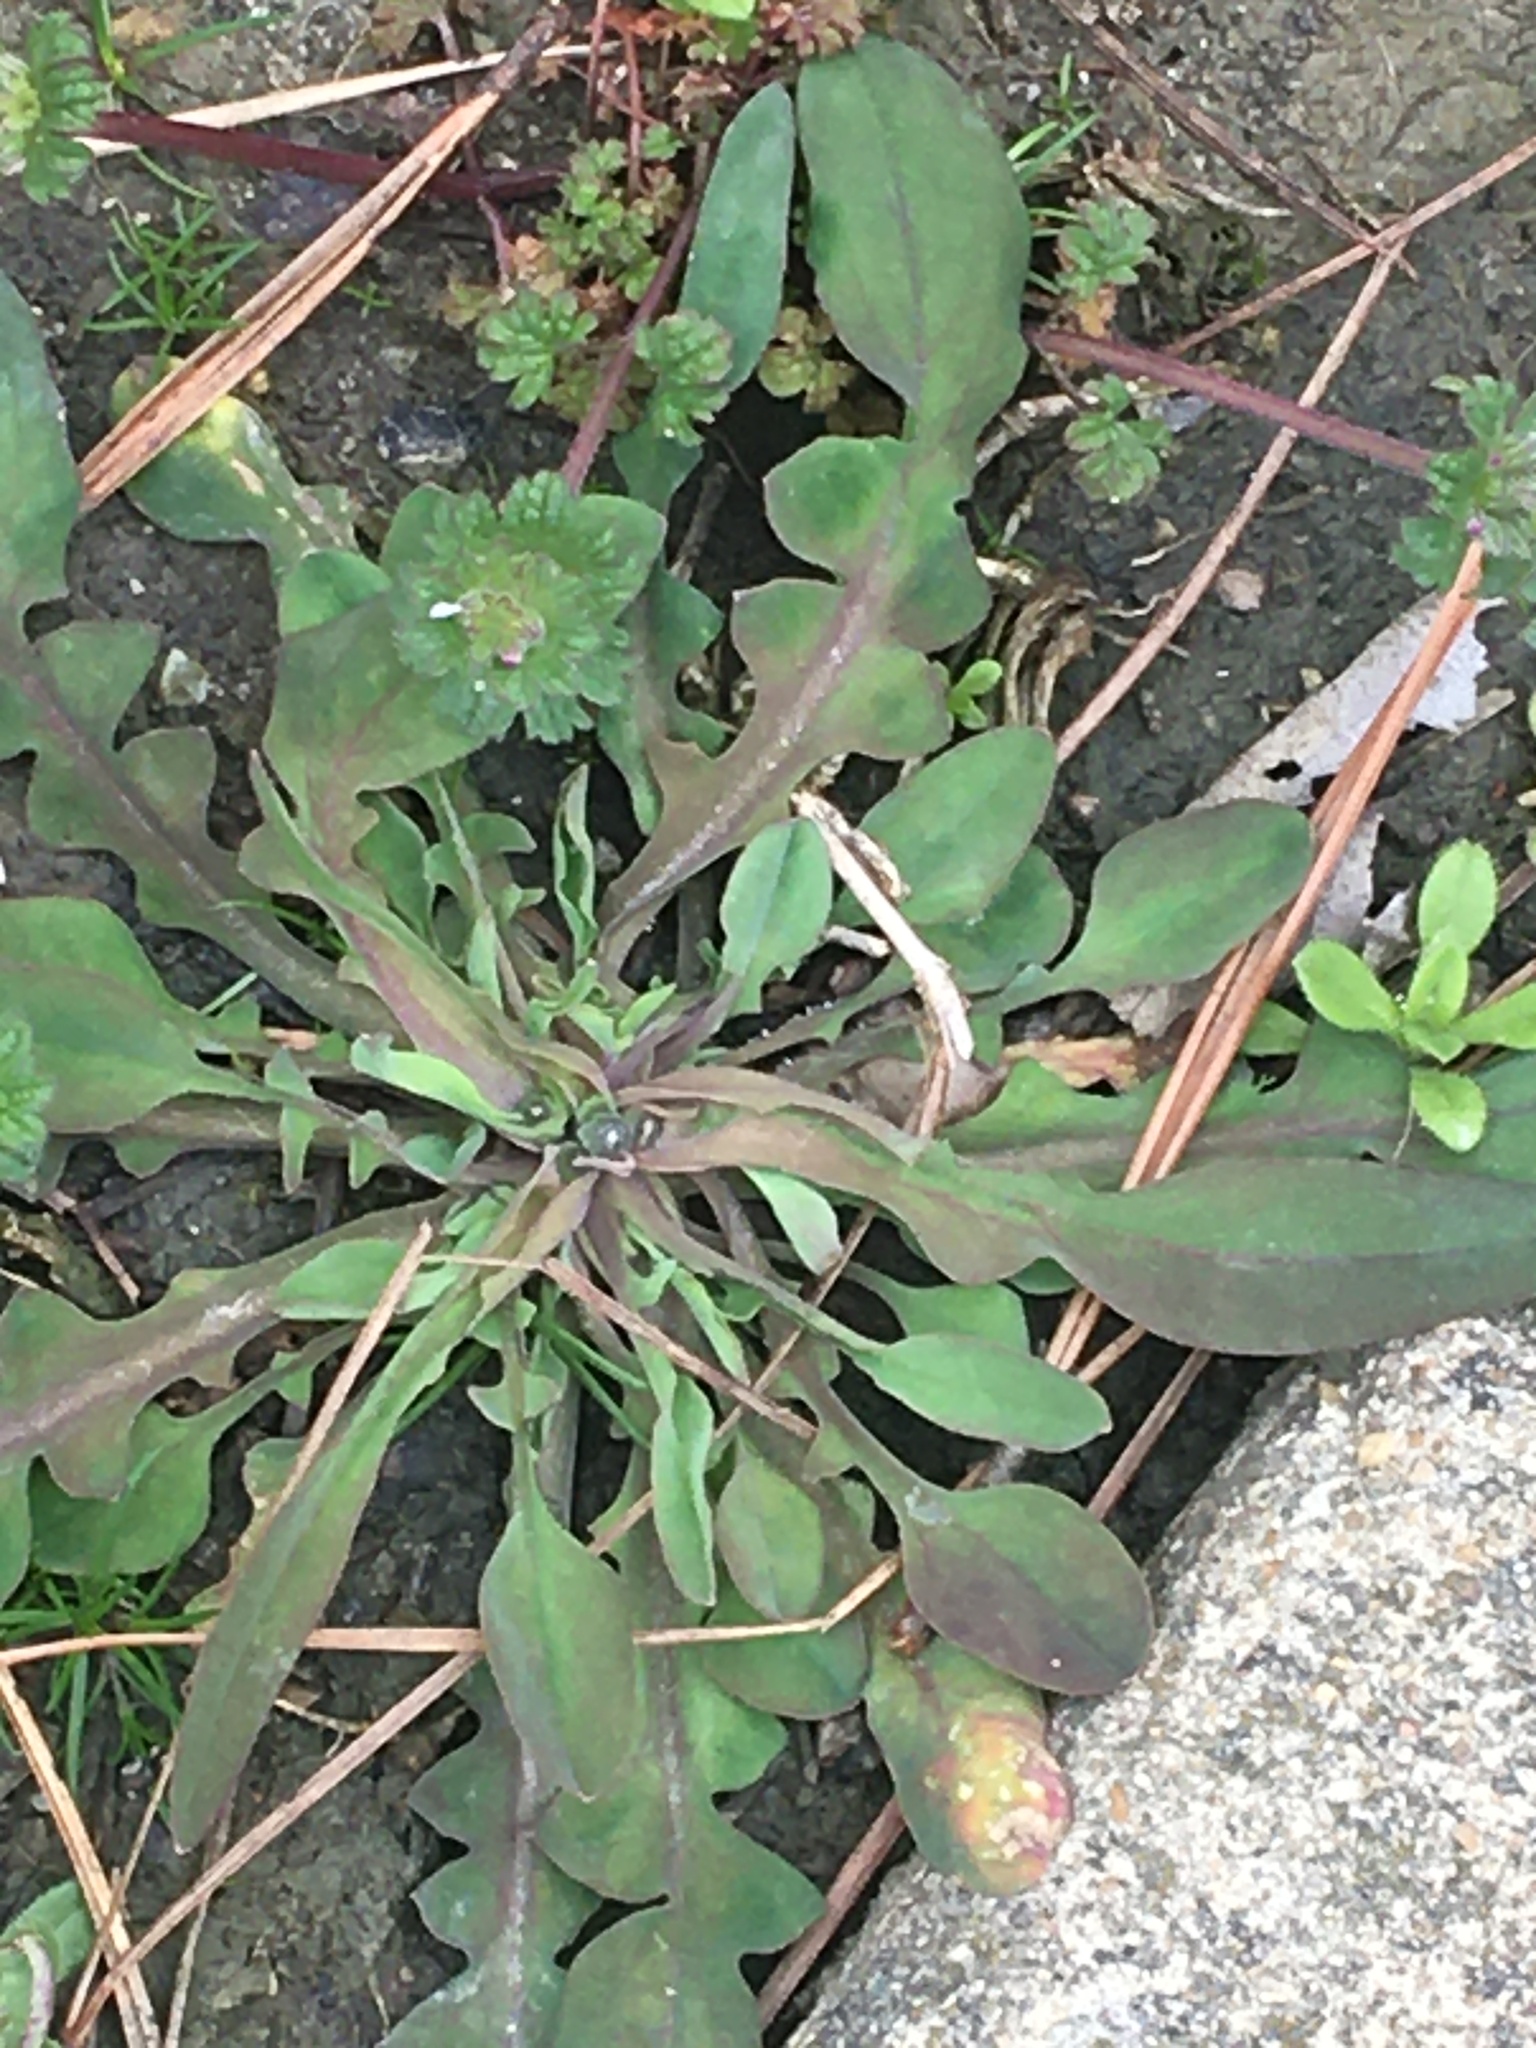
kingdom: Plantae
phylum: Tracheophyta
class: Magnoliopsida
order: Asterales
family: Asteraceae
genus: Krigia
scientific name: Krigia cespitosa
